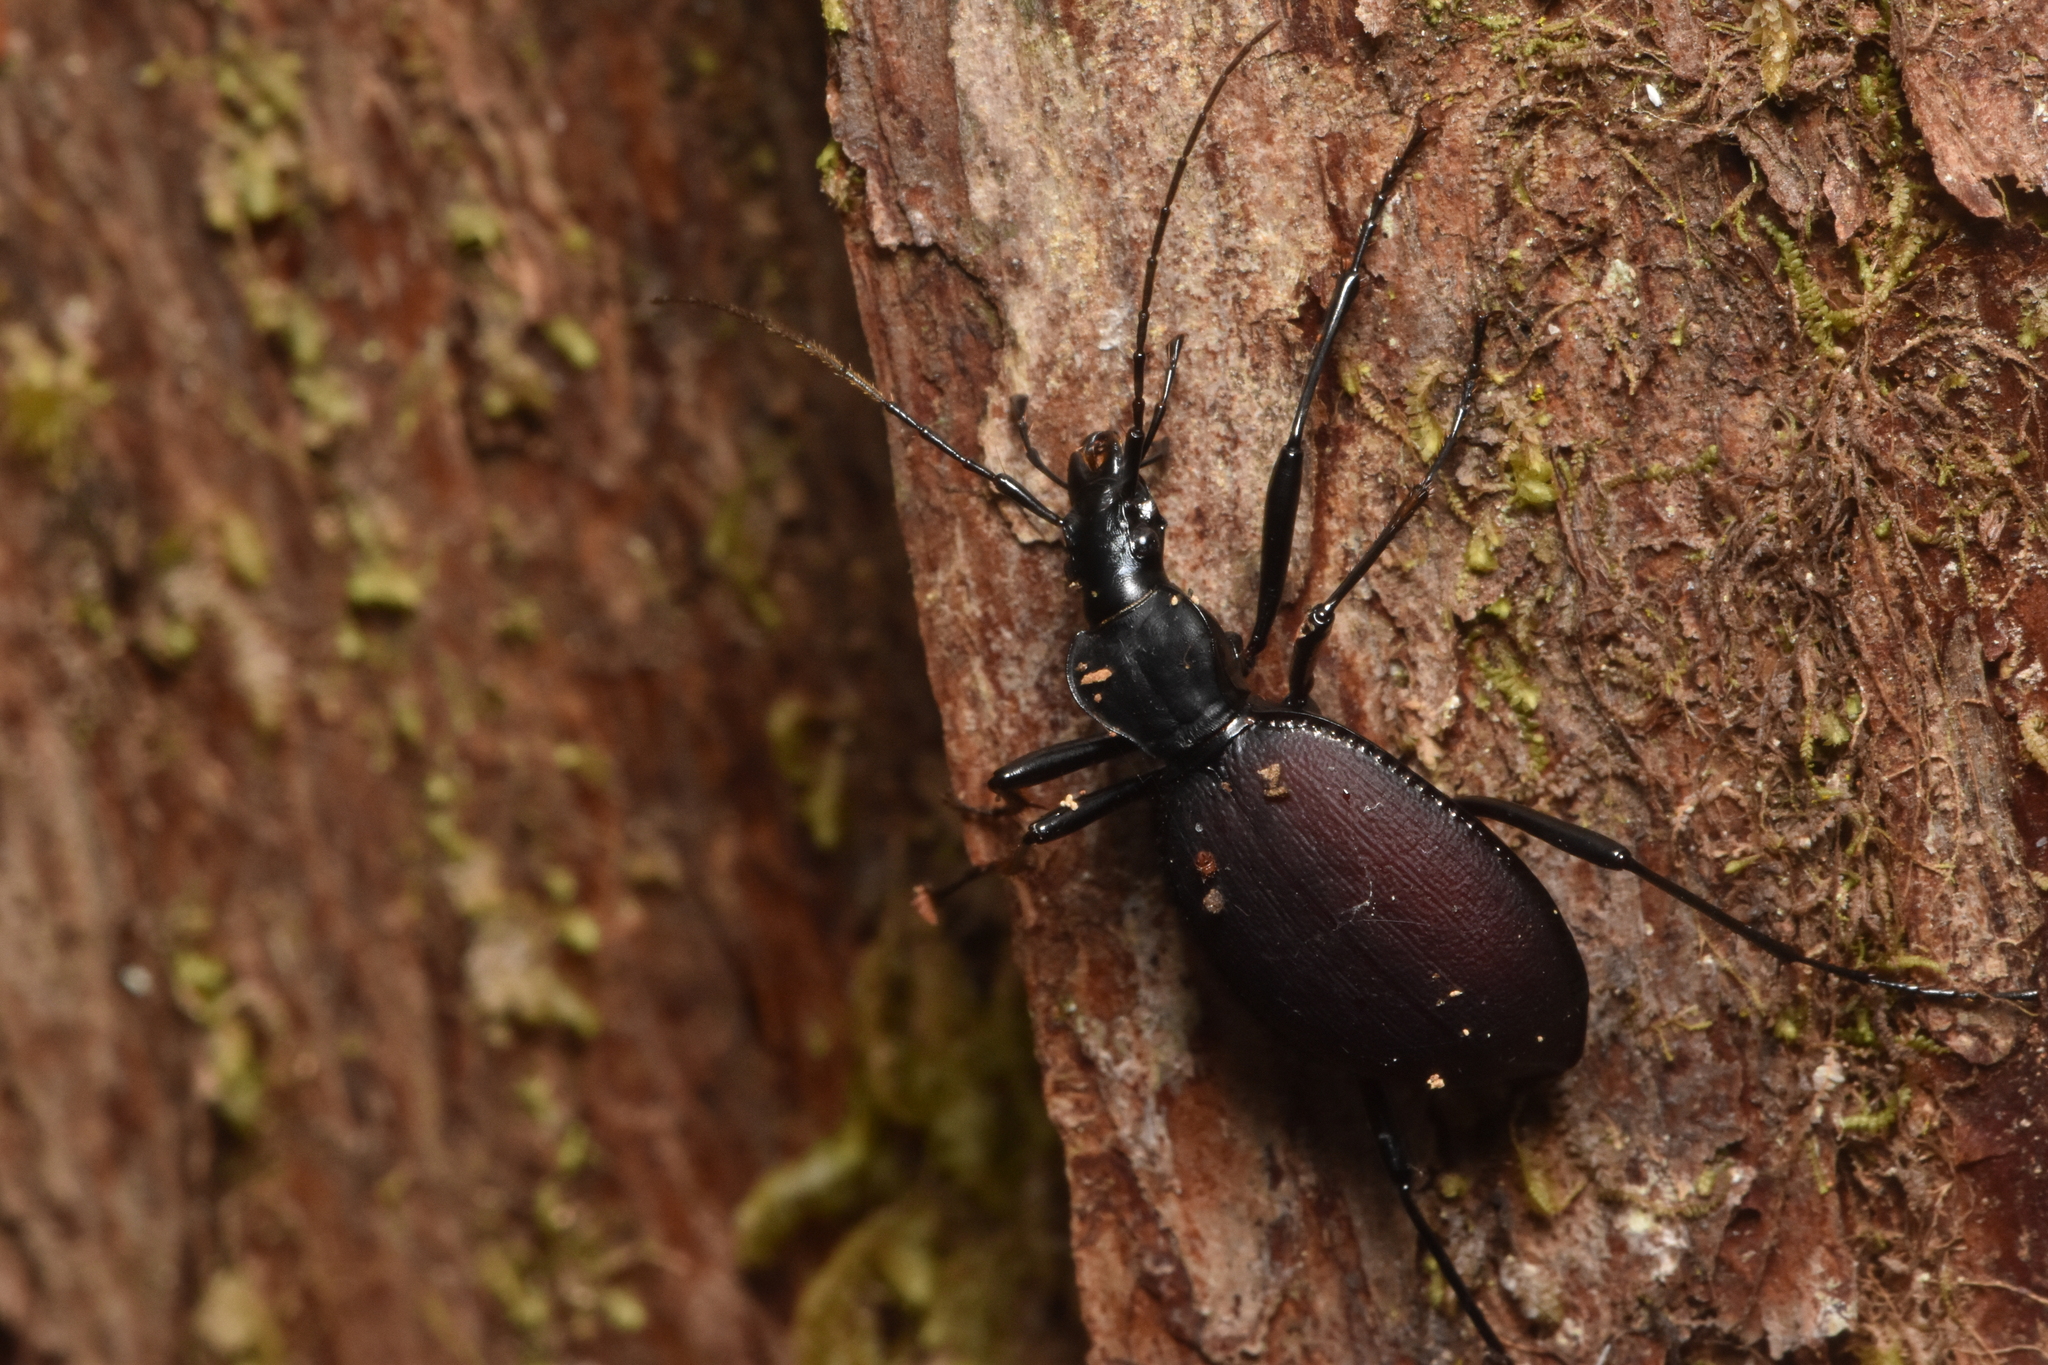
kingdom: Animalia
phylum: Arthropoda
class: Insecta
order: Coleoptera
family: Carabidae
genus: Scaphinotus
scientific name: Scaphinotus angusticollis
